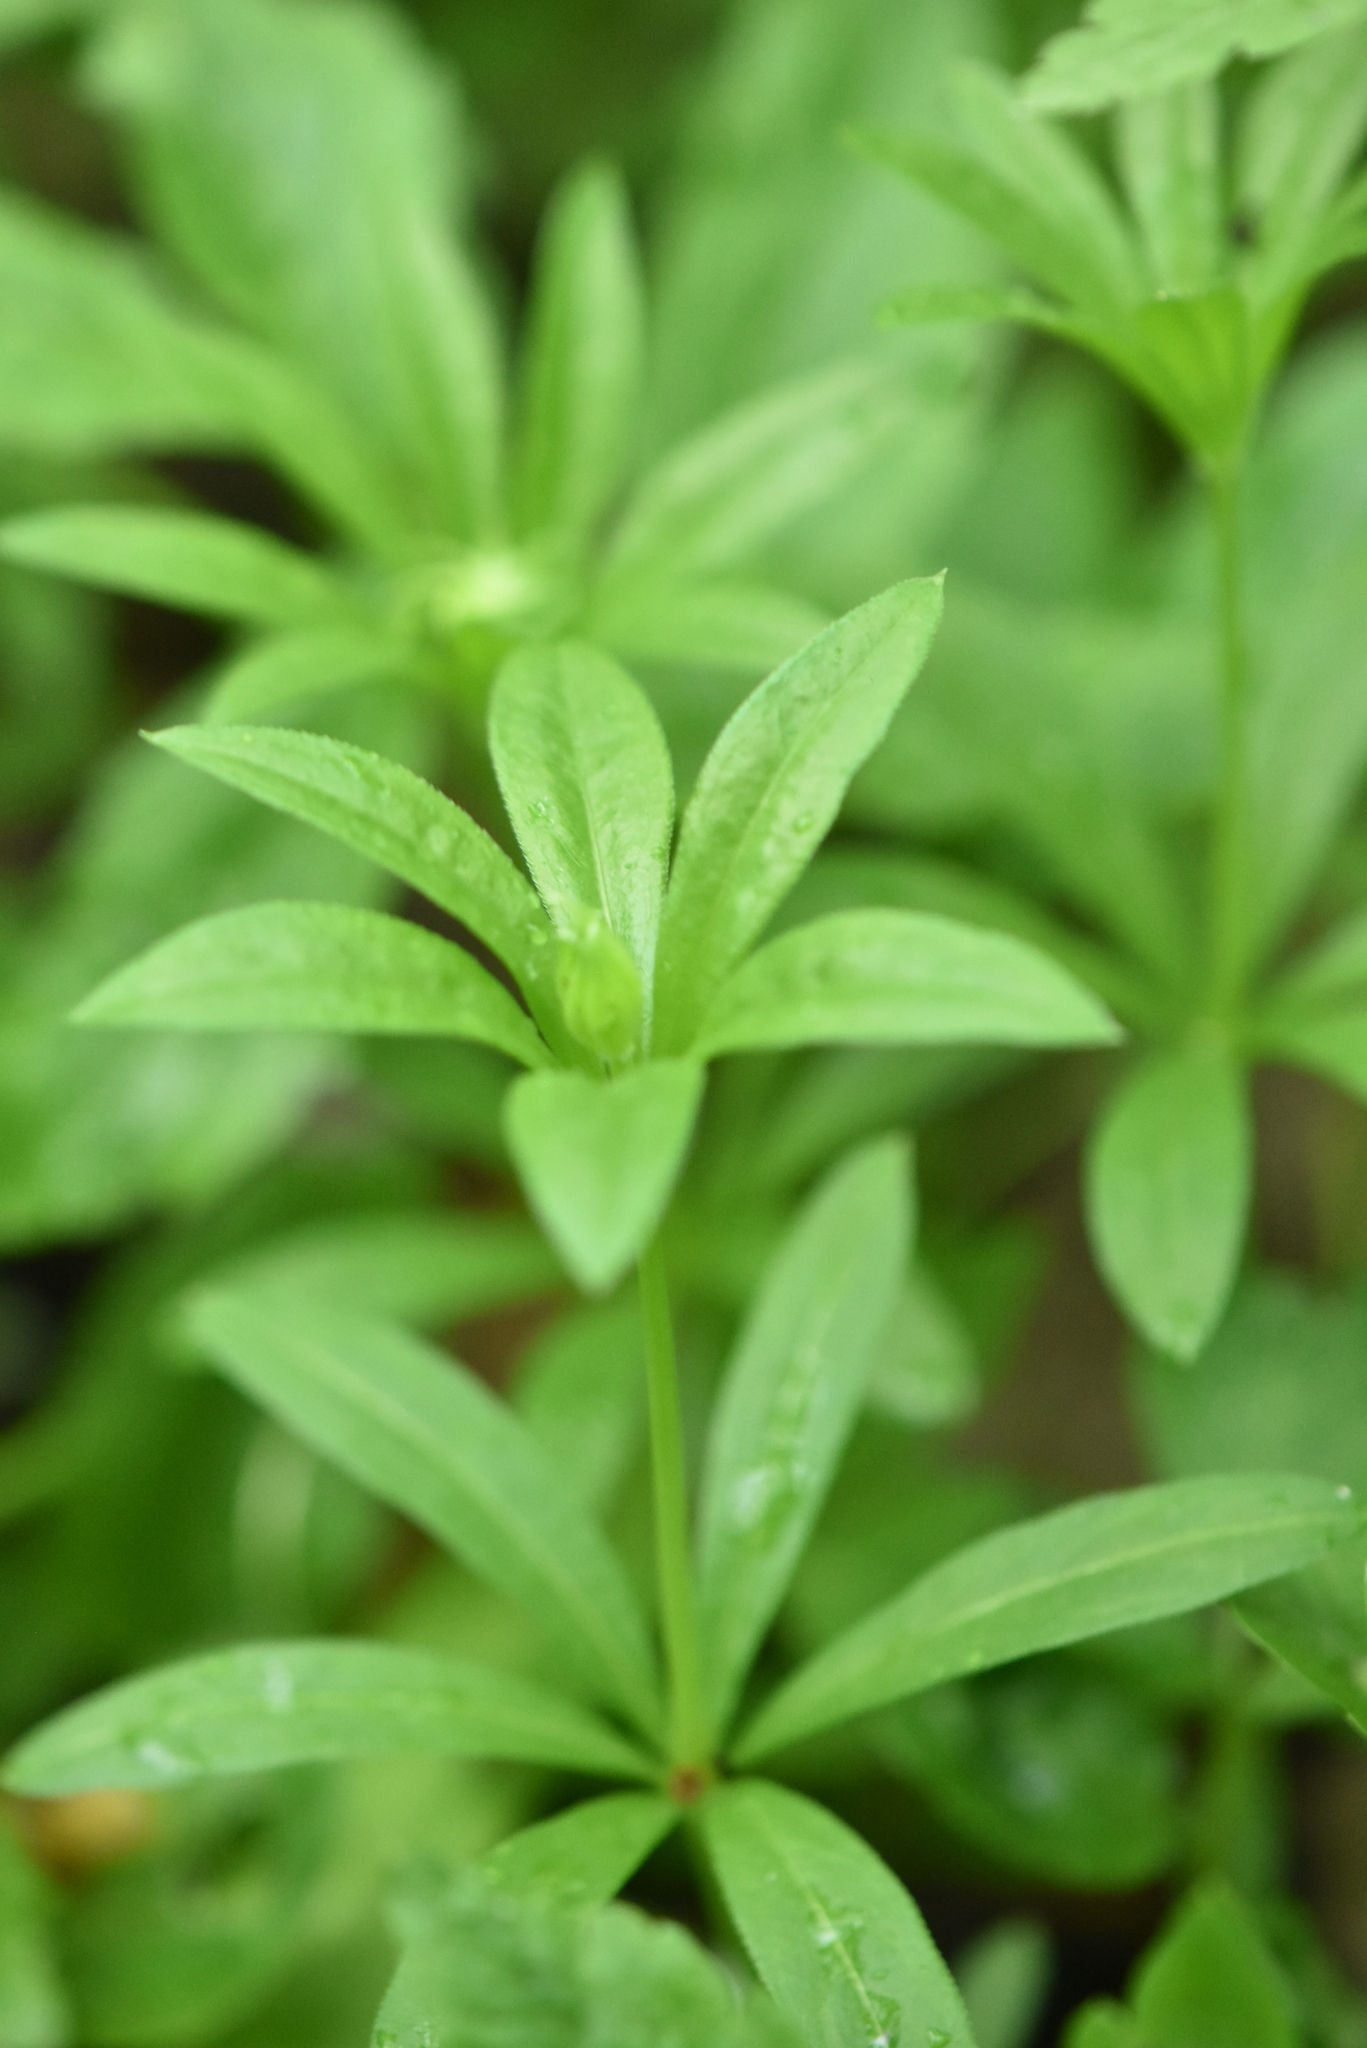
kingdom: Plantae
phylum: Tracheophyta
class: Magnoliopsida
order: Gentianales
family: Rubiaceae
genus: Galium
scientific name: Galium odoratum
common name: Sweet woodruff
